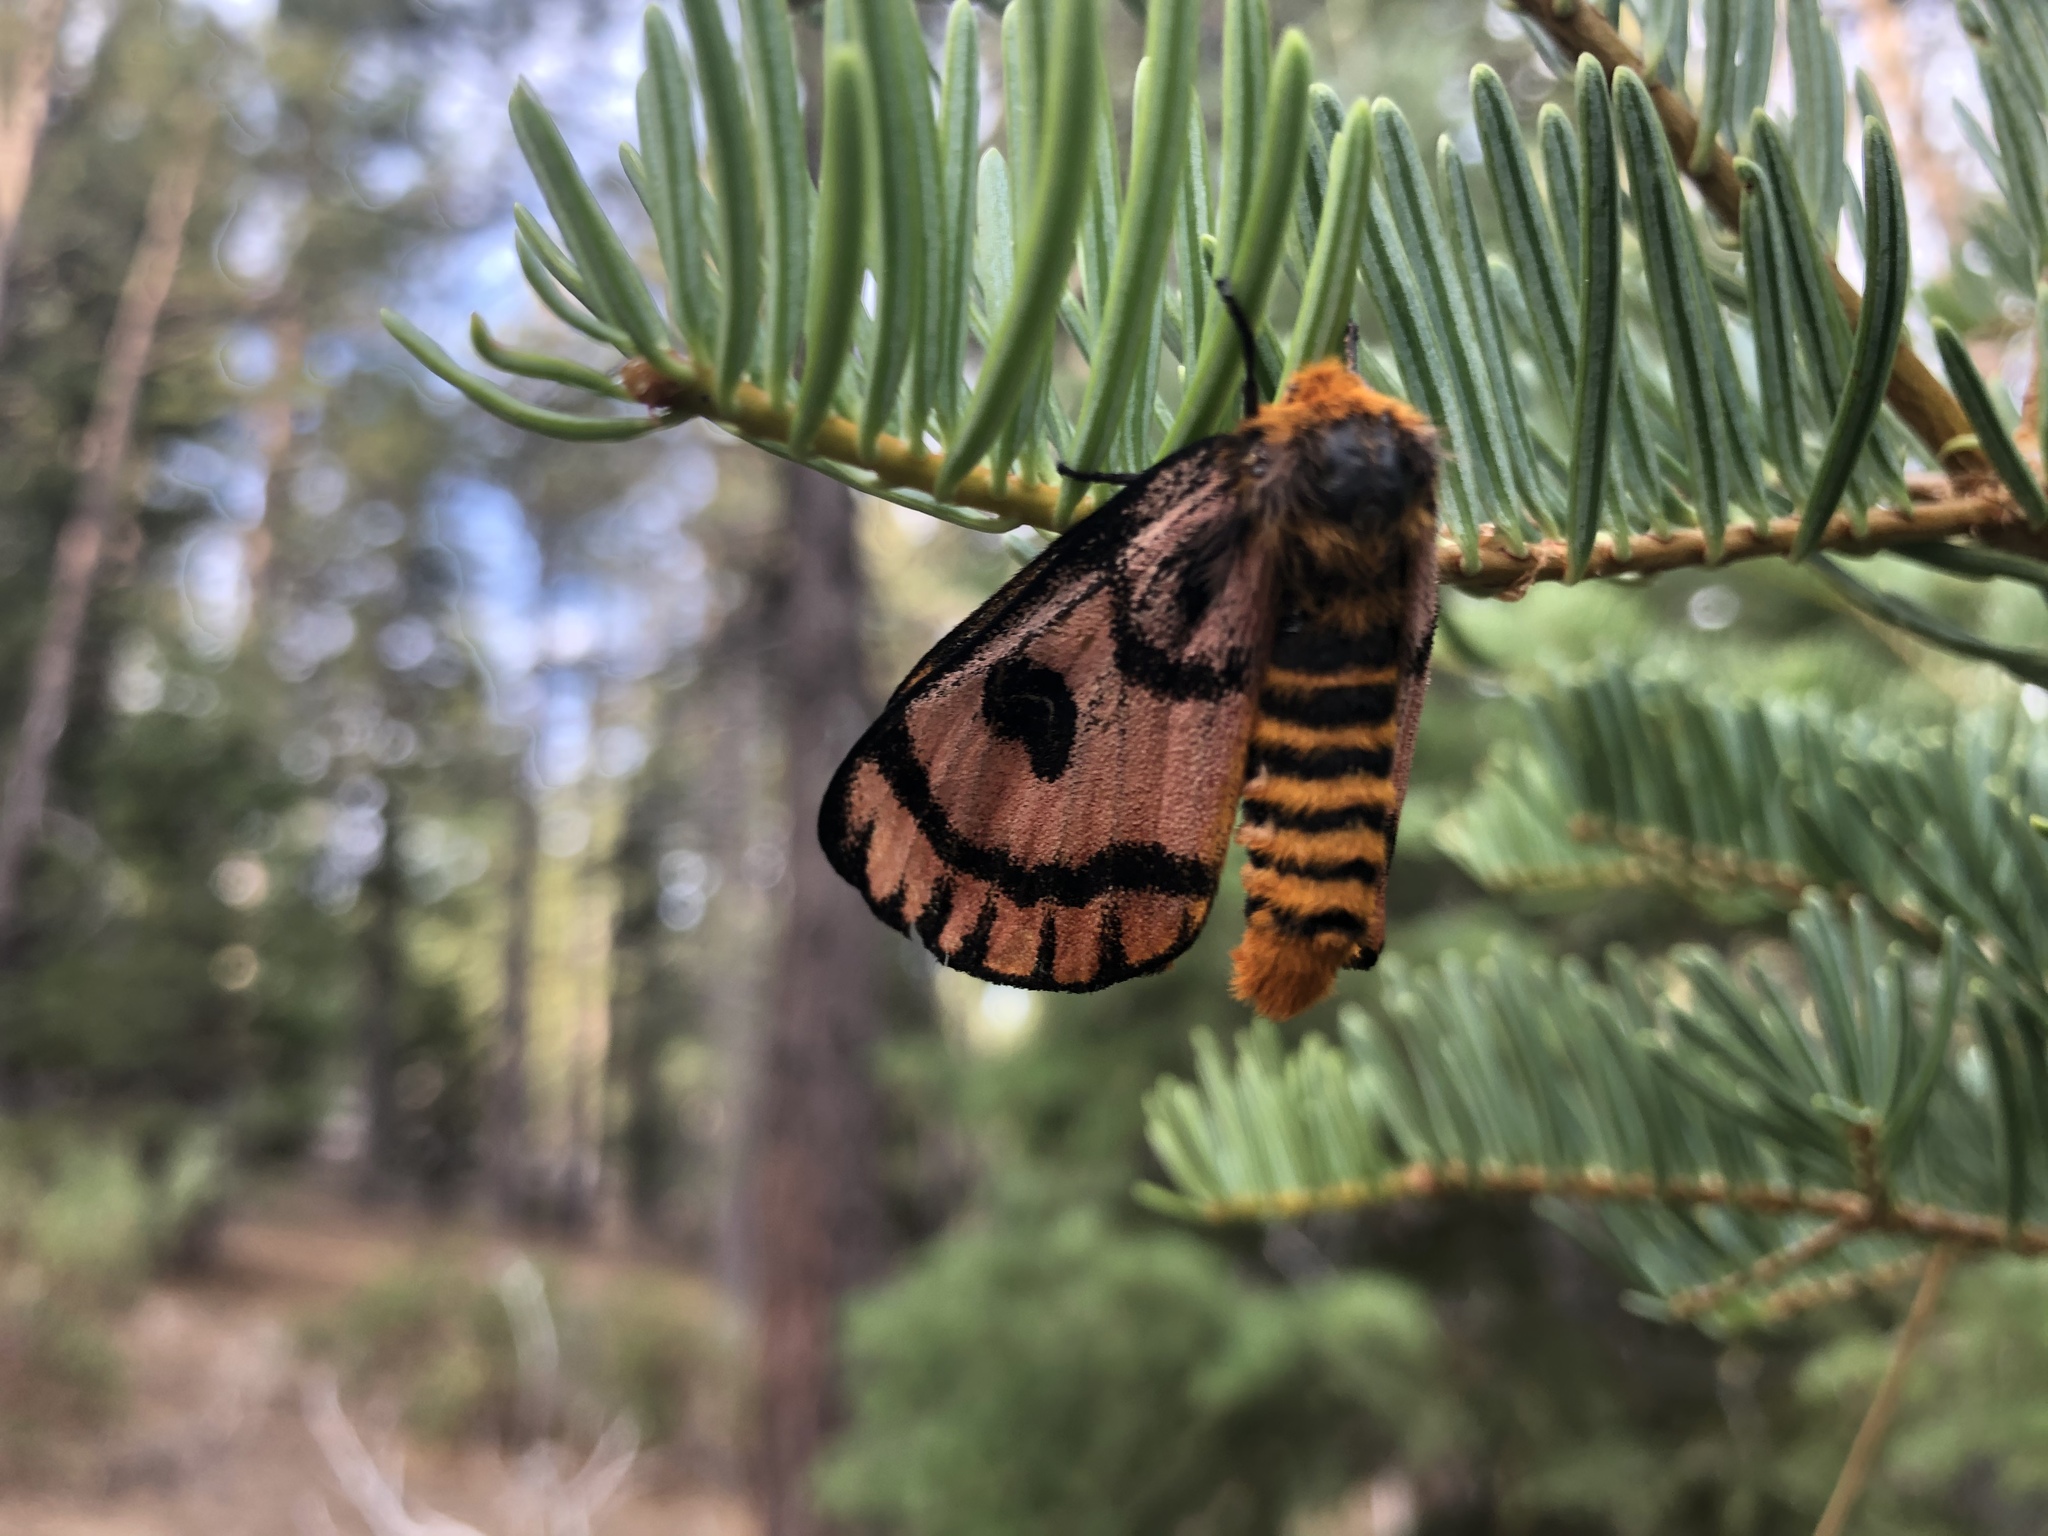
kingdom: Animalia
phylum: Arthropoda
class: Insecta
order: Lepidoptera
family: Saturniidae
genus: Hemileuca
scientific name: Hemileuca eglanterina
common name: Western sheepmoth
